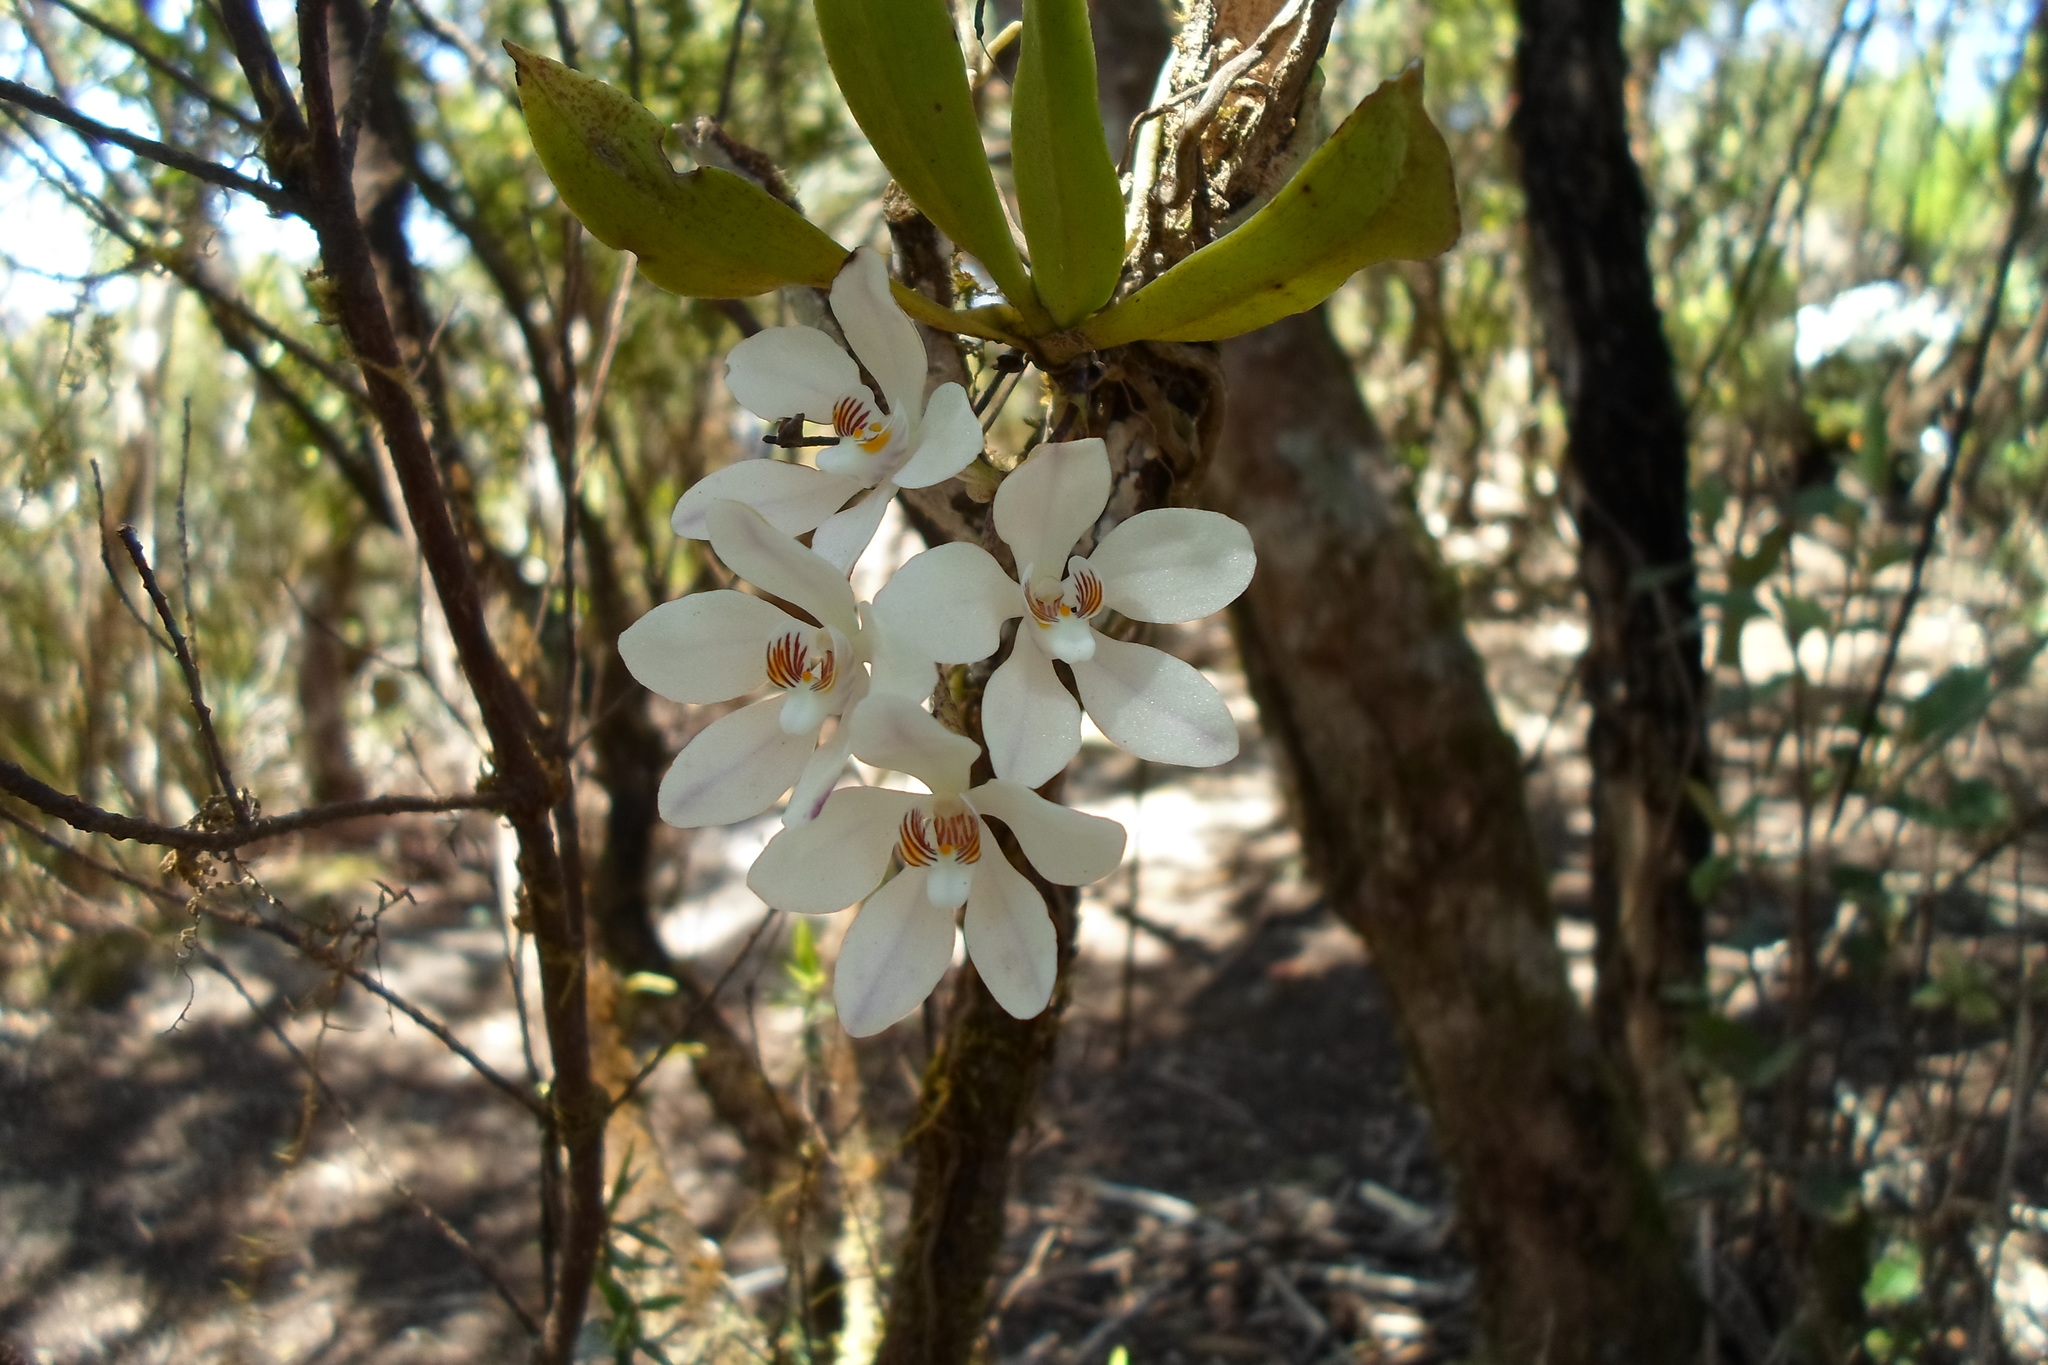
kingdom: Plantae
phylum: Tracheophyta
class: Liliopsida
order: Asparagales
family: Orchidaceae
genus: Sarcochilus
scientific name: Sarcochilus falcatus
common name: Orange blossom orchid
